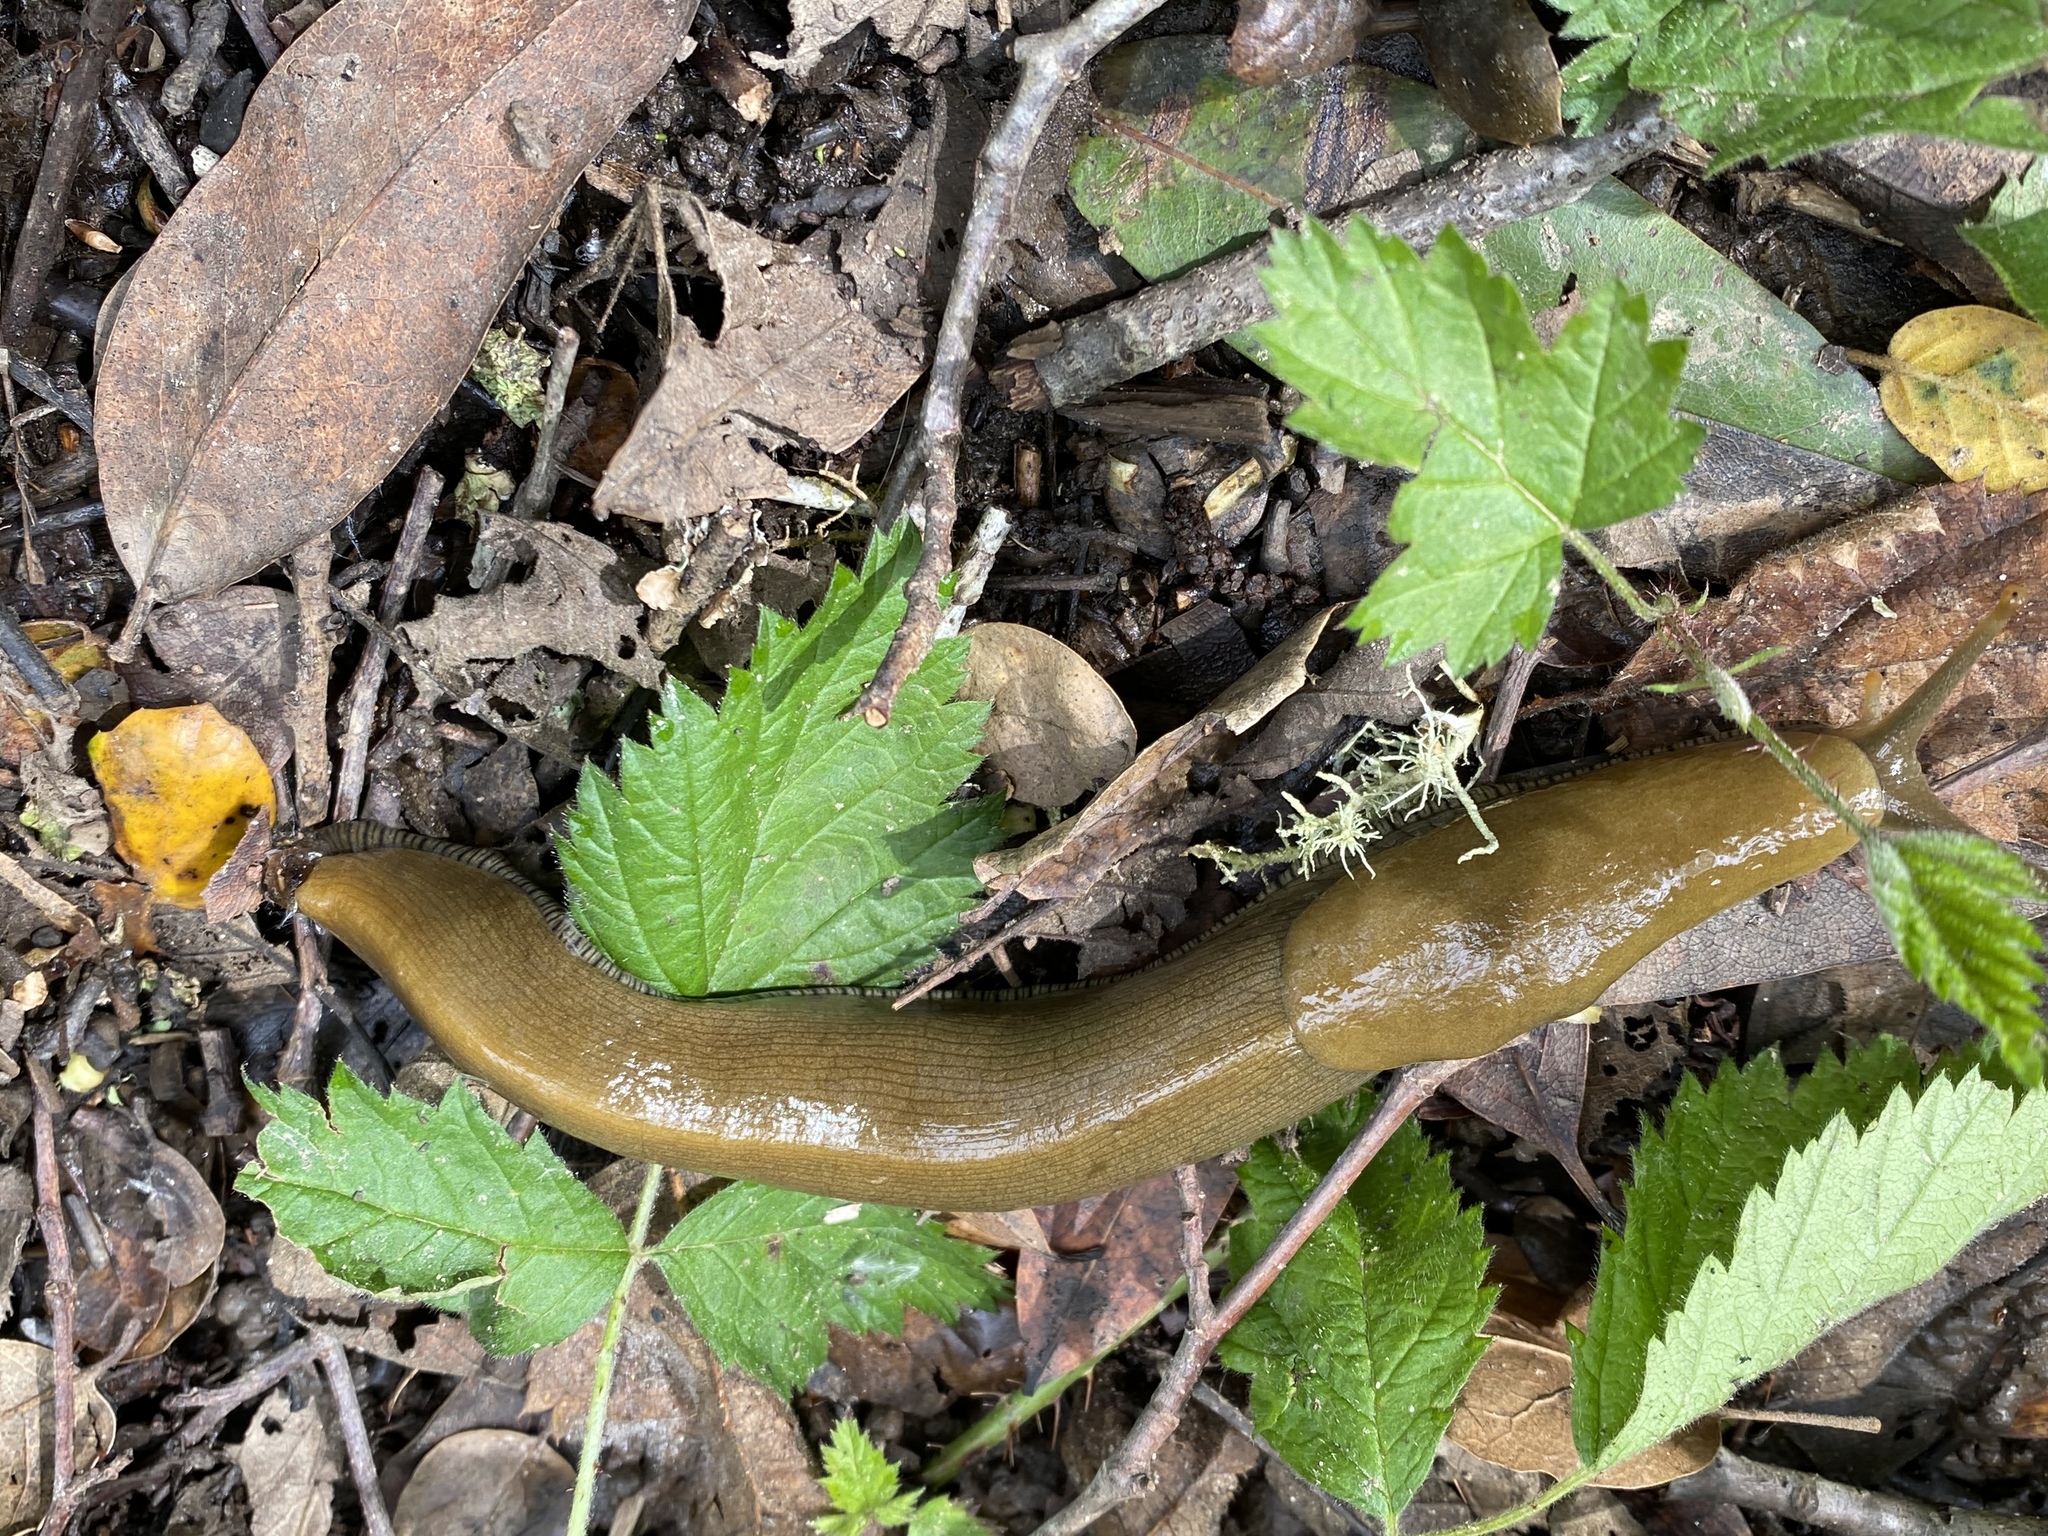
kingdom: Animalia
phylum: Mollusca
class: Gastropoda
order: Stylommatophora
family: Ariolimacidae
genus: Ariolimax
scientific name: Ariolimax buttoni
